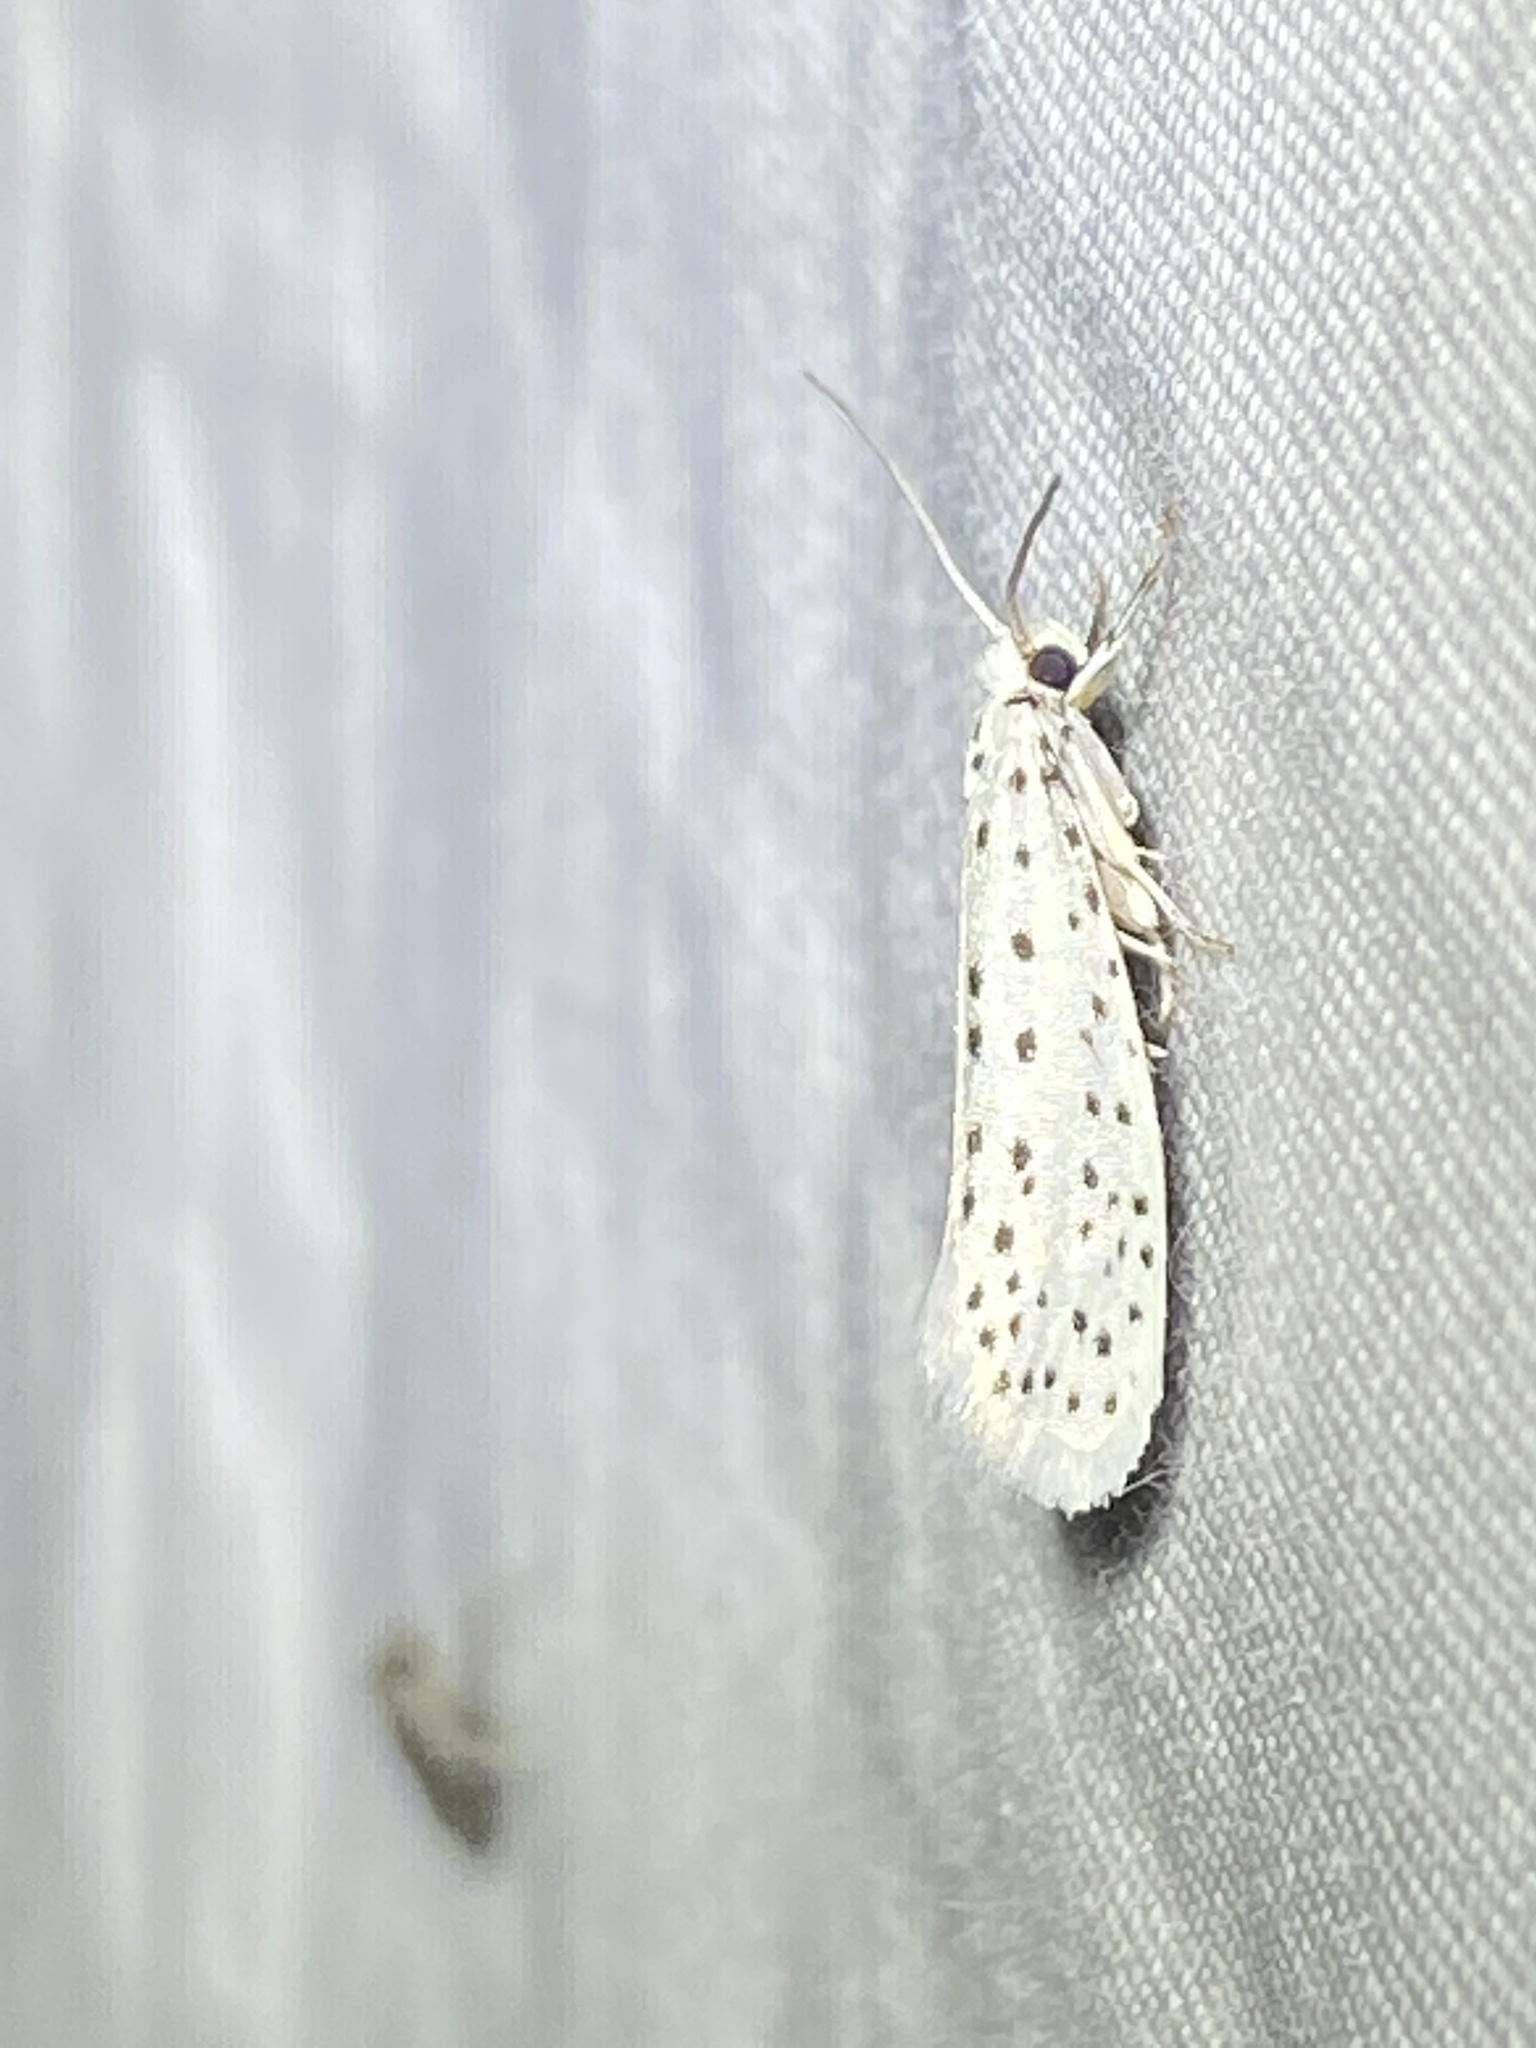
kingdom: Animalia
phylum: Arthropoda
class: Insecta
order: Lepidoptera
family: Yponomeutidae
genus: Yponomeuta
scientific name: Yponomeuta multipunctella
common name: American ermine moth
